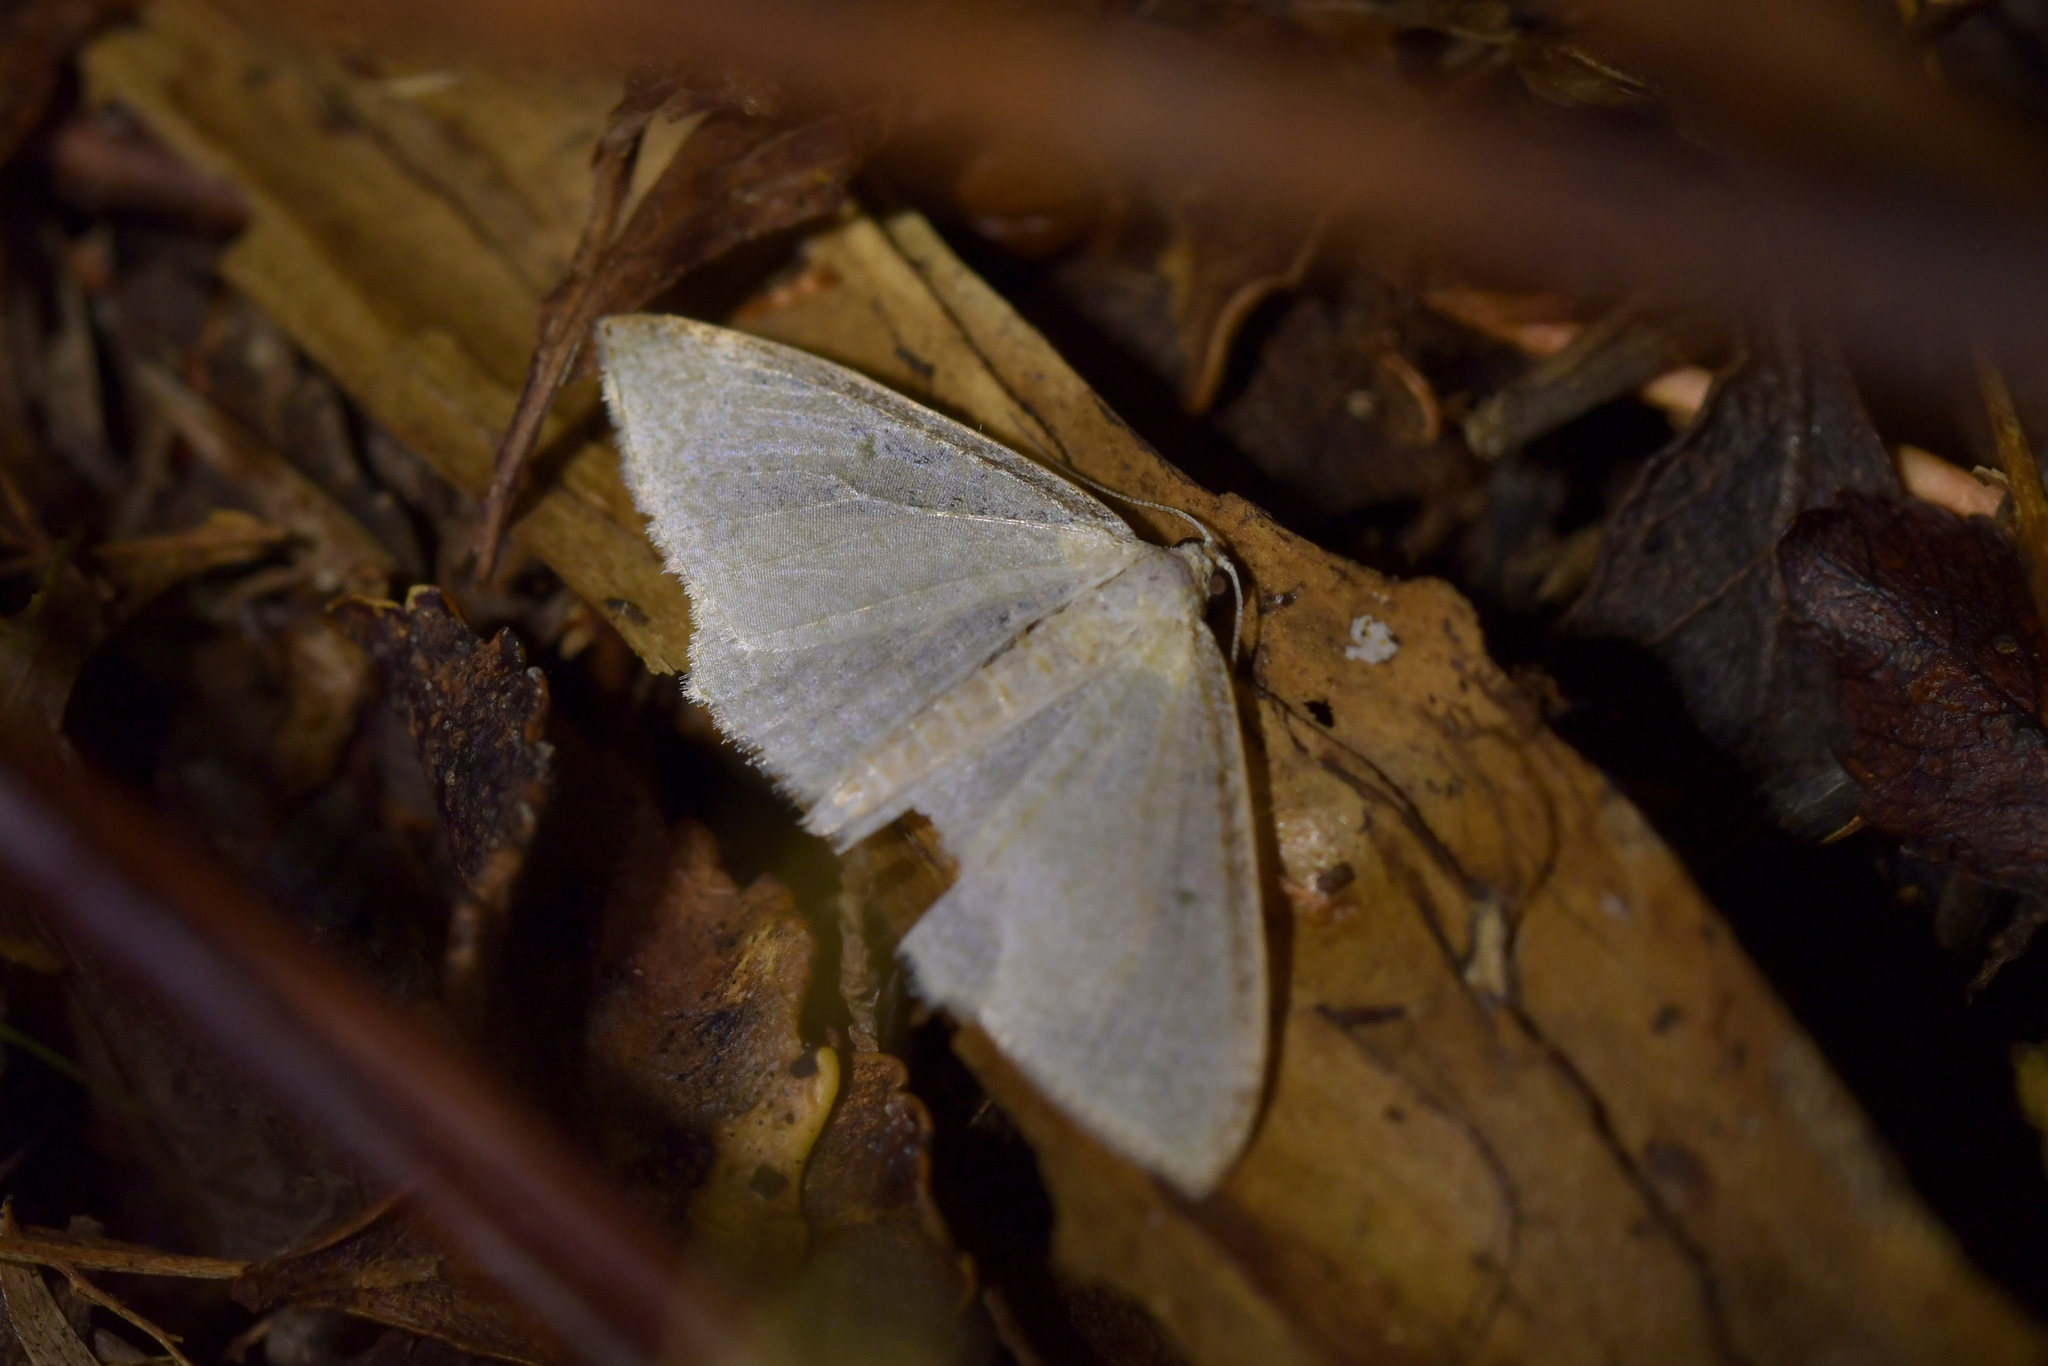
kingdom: Animalia
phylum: Arthropoda
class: Insecta
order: Lepidoptera
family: Geometridae
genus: Poecilasthena
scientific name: Poecilasthena pulchraria
